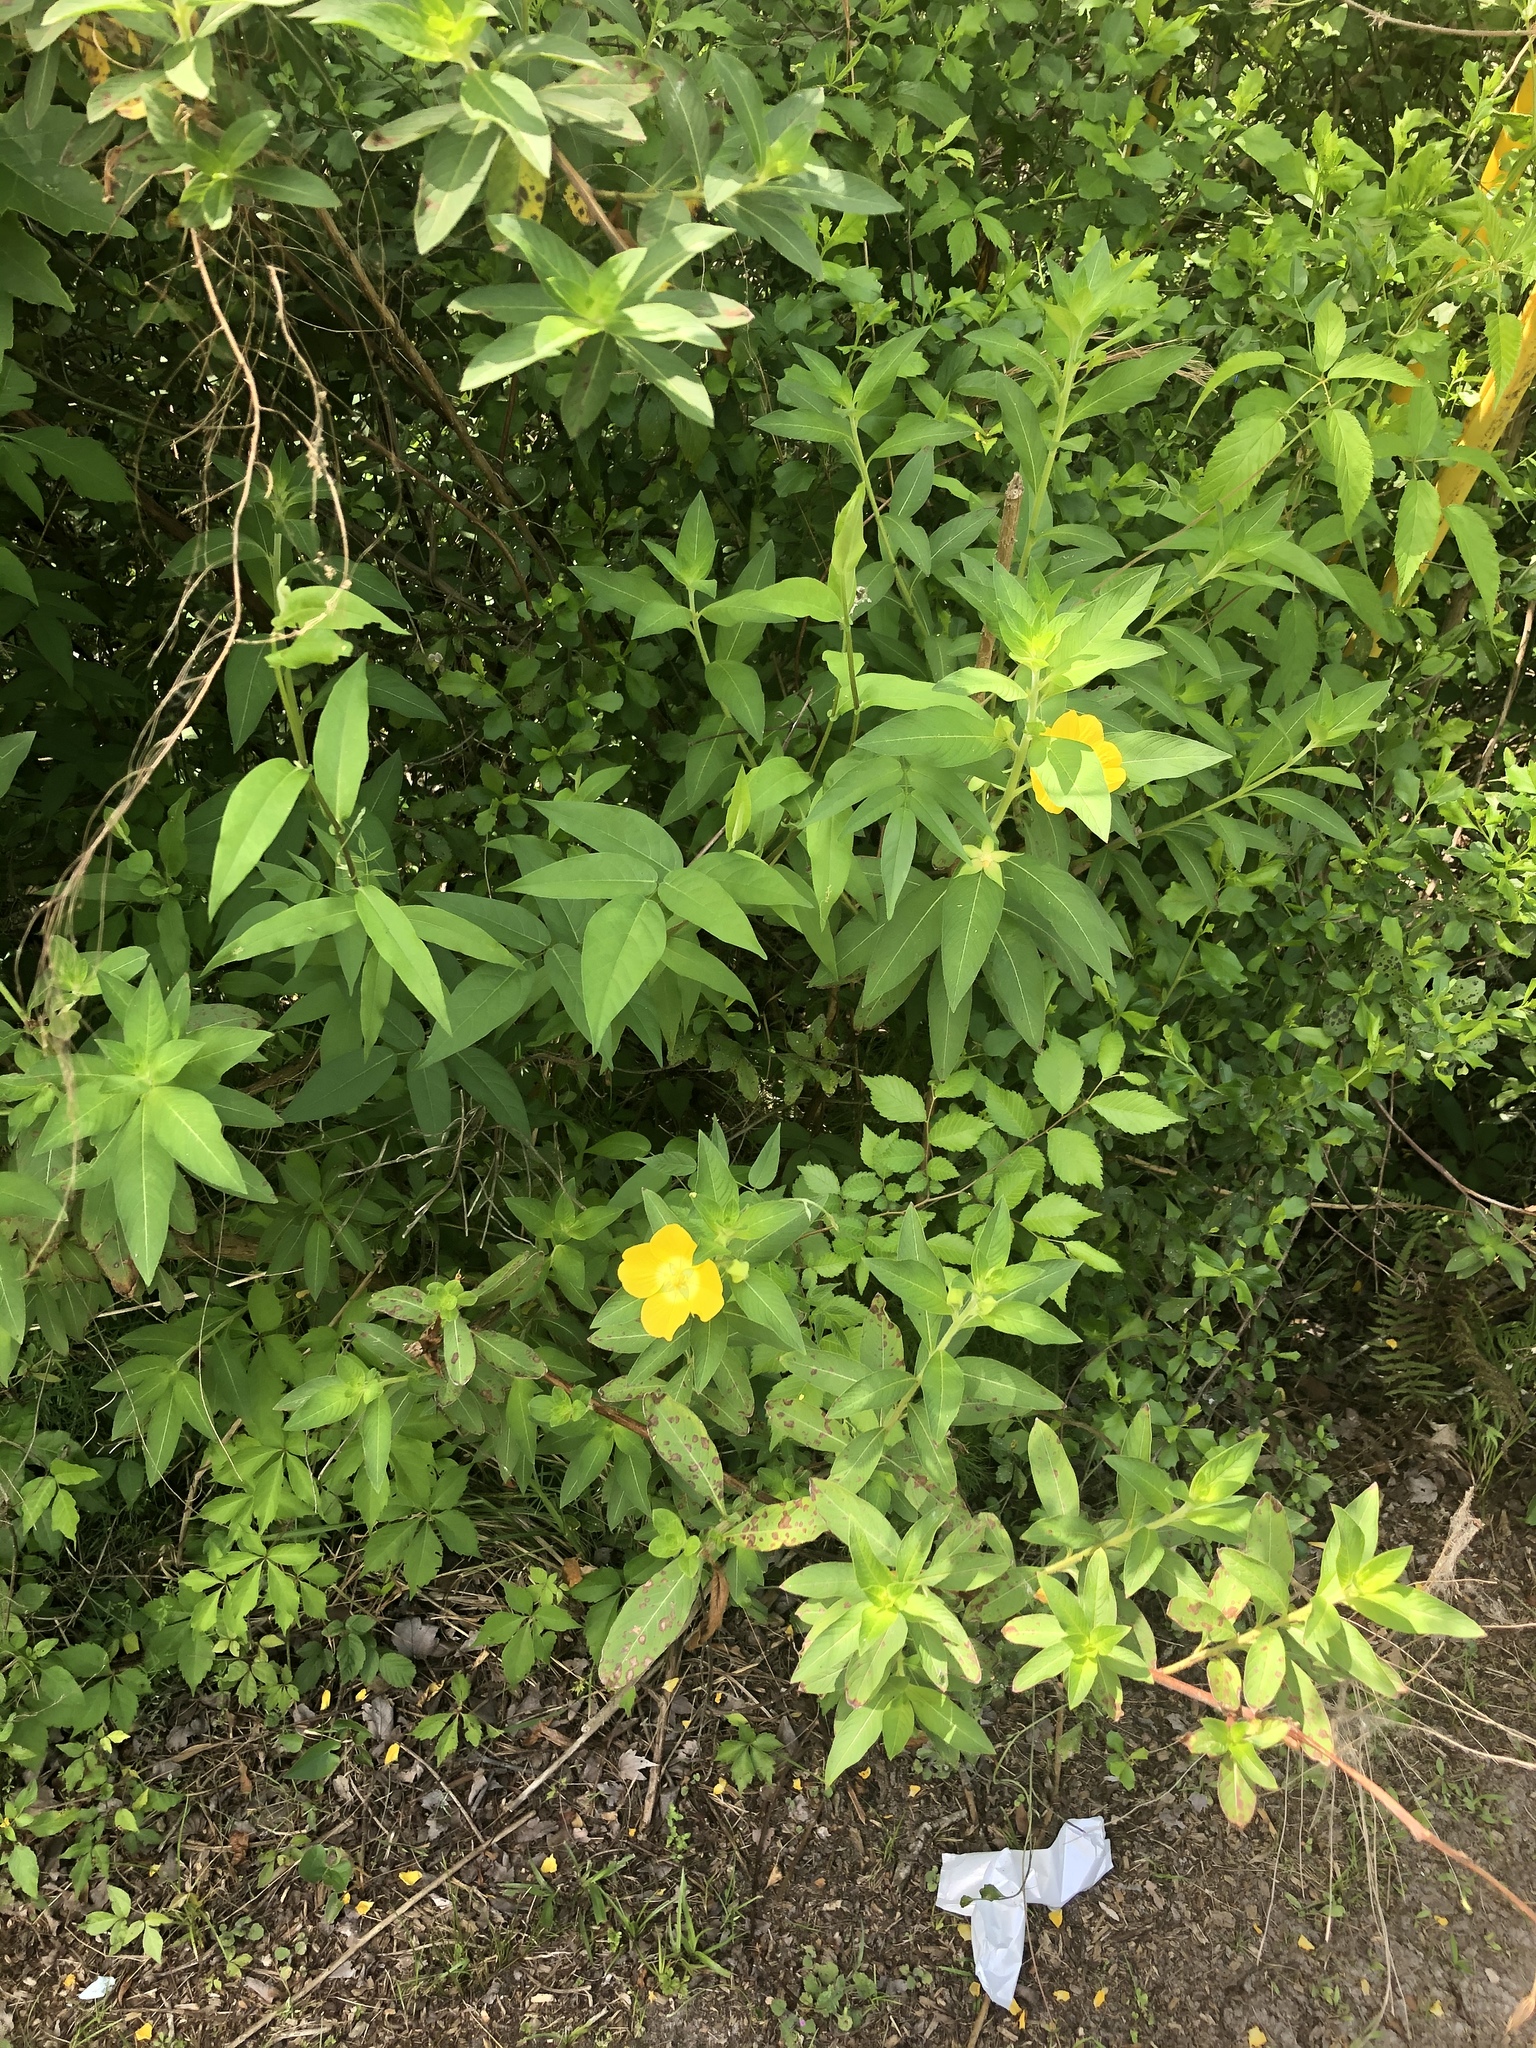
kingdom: Plantae
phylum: Tracheophyta
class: Magnoliopsida
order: Myrtales
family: Onagraceae
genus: Ludwigia
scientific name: Ludwigia peruviana
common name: Peruvian primrose-willow
